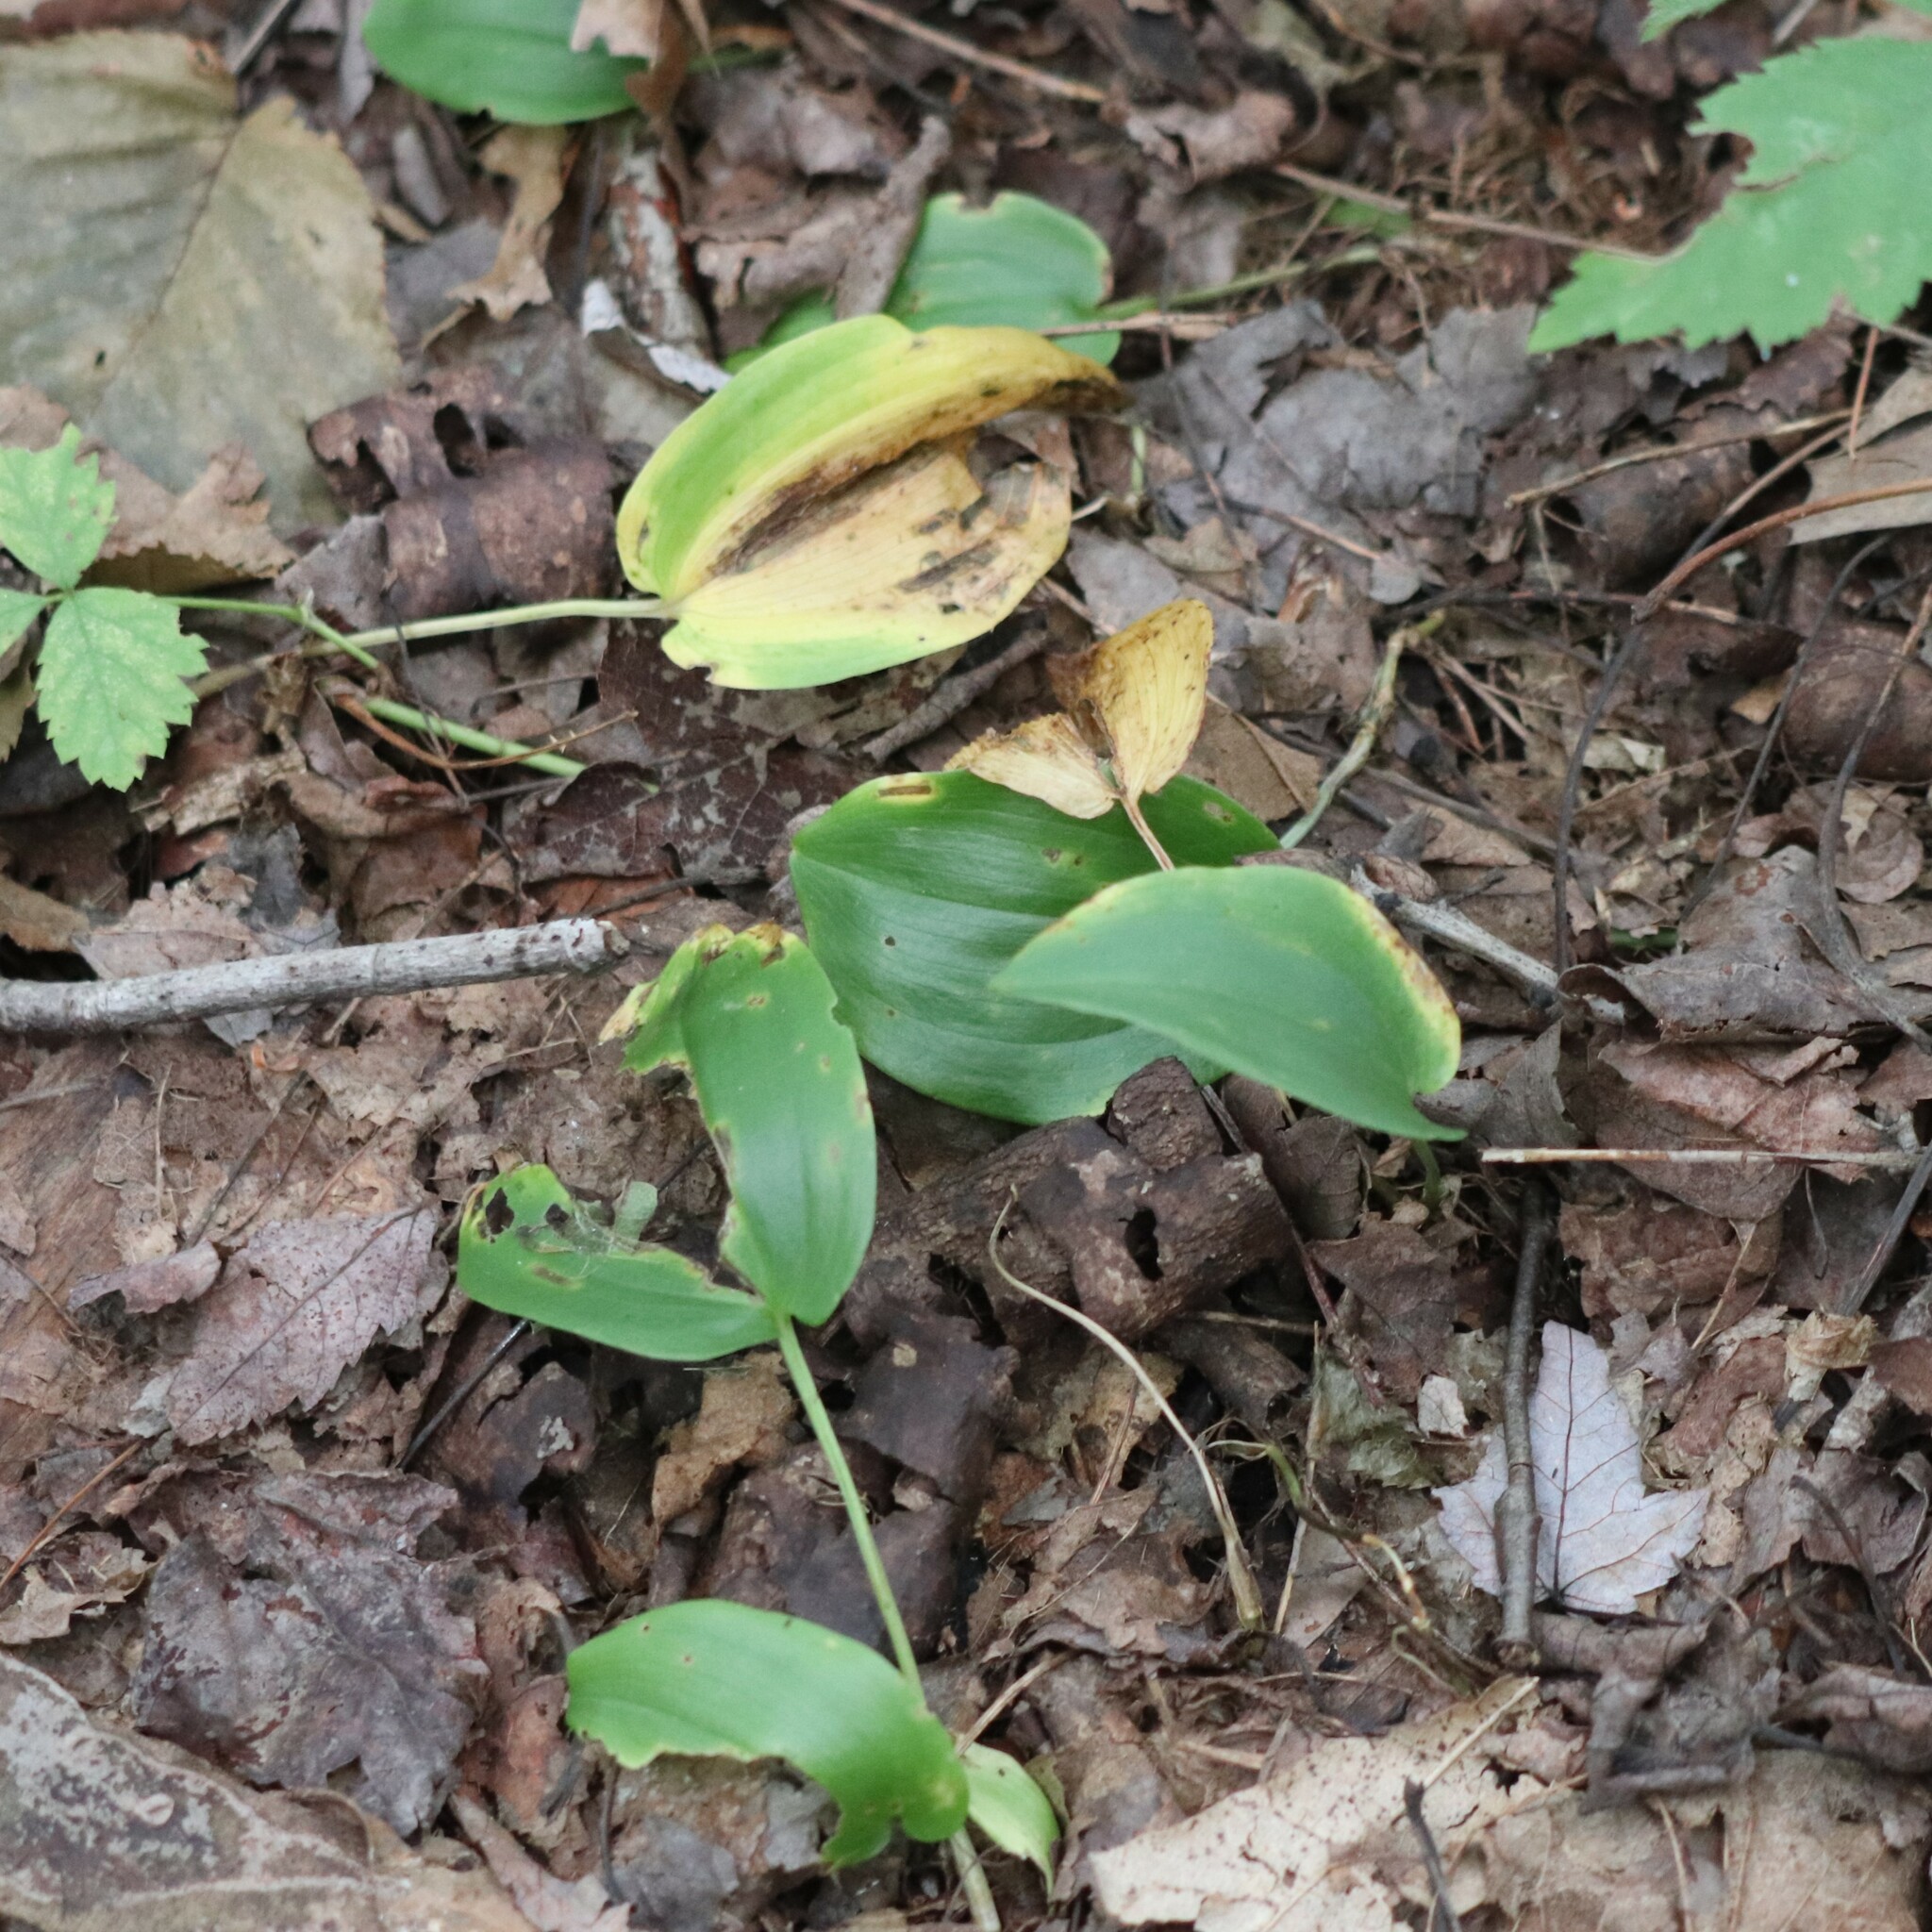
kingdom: Plantae
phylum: Tracheophyta
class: Liliopsida
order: Asparagales
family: Asparagaceae
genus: Maianthemum
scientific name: Maianthemum canadense
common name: False lily-of-the-valley
